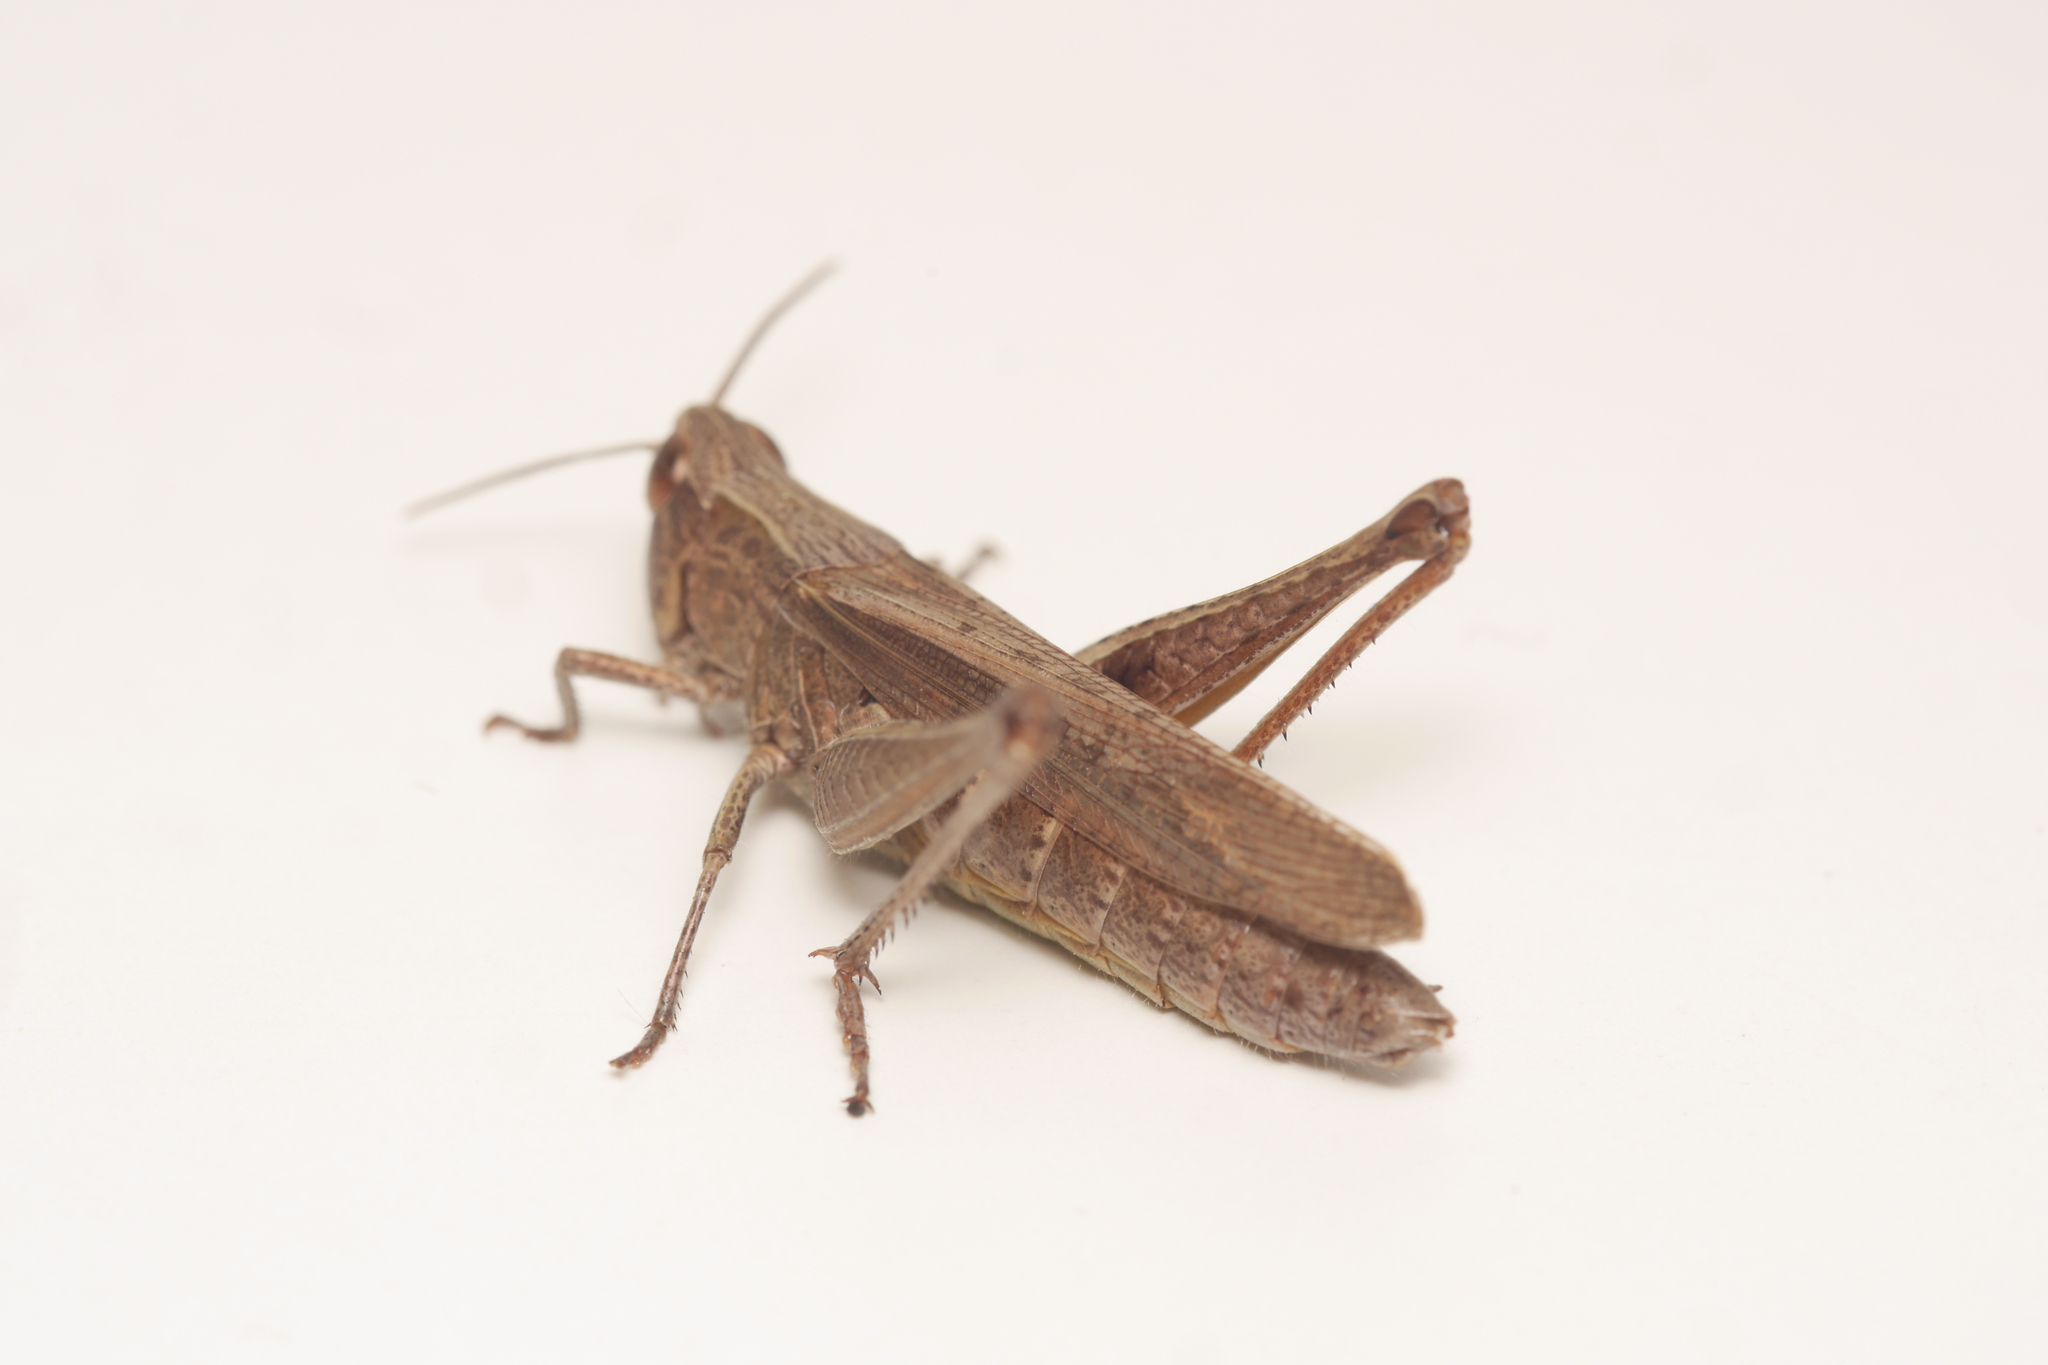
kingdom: Animalia
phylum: Arthropoda
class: Insecta
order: Orthoptera
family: Acrididae
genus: Chorthippus
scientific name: Chorthippus dorsatus
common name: Steppe grasshopper
